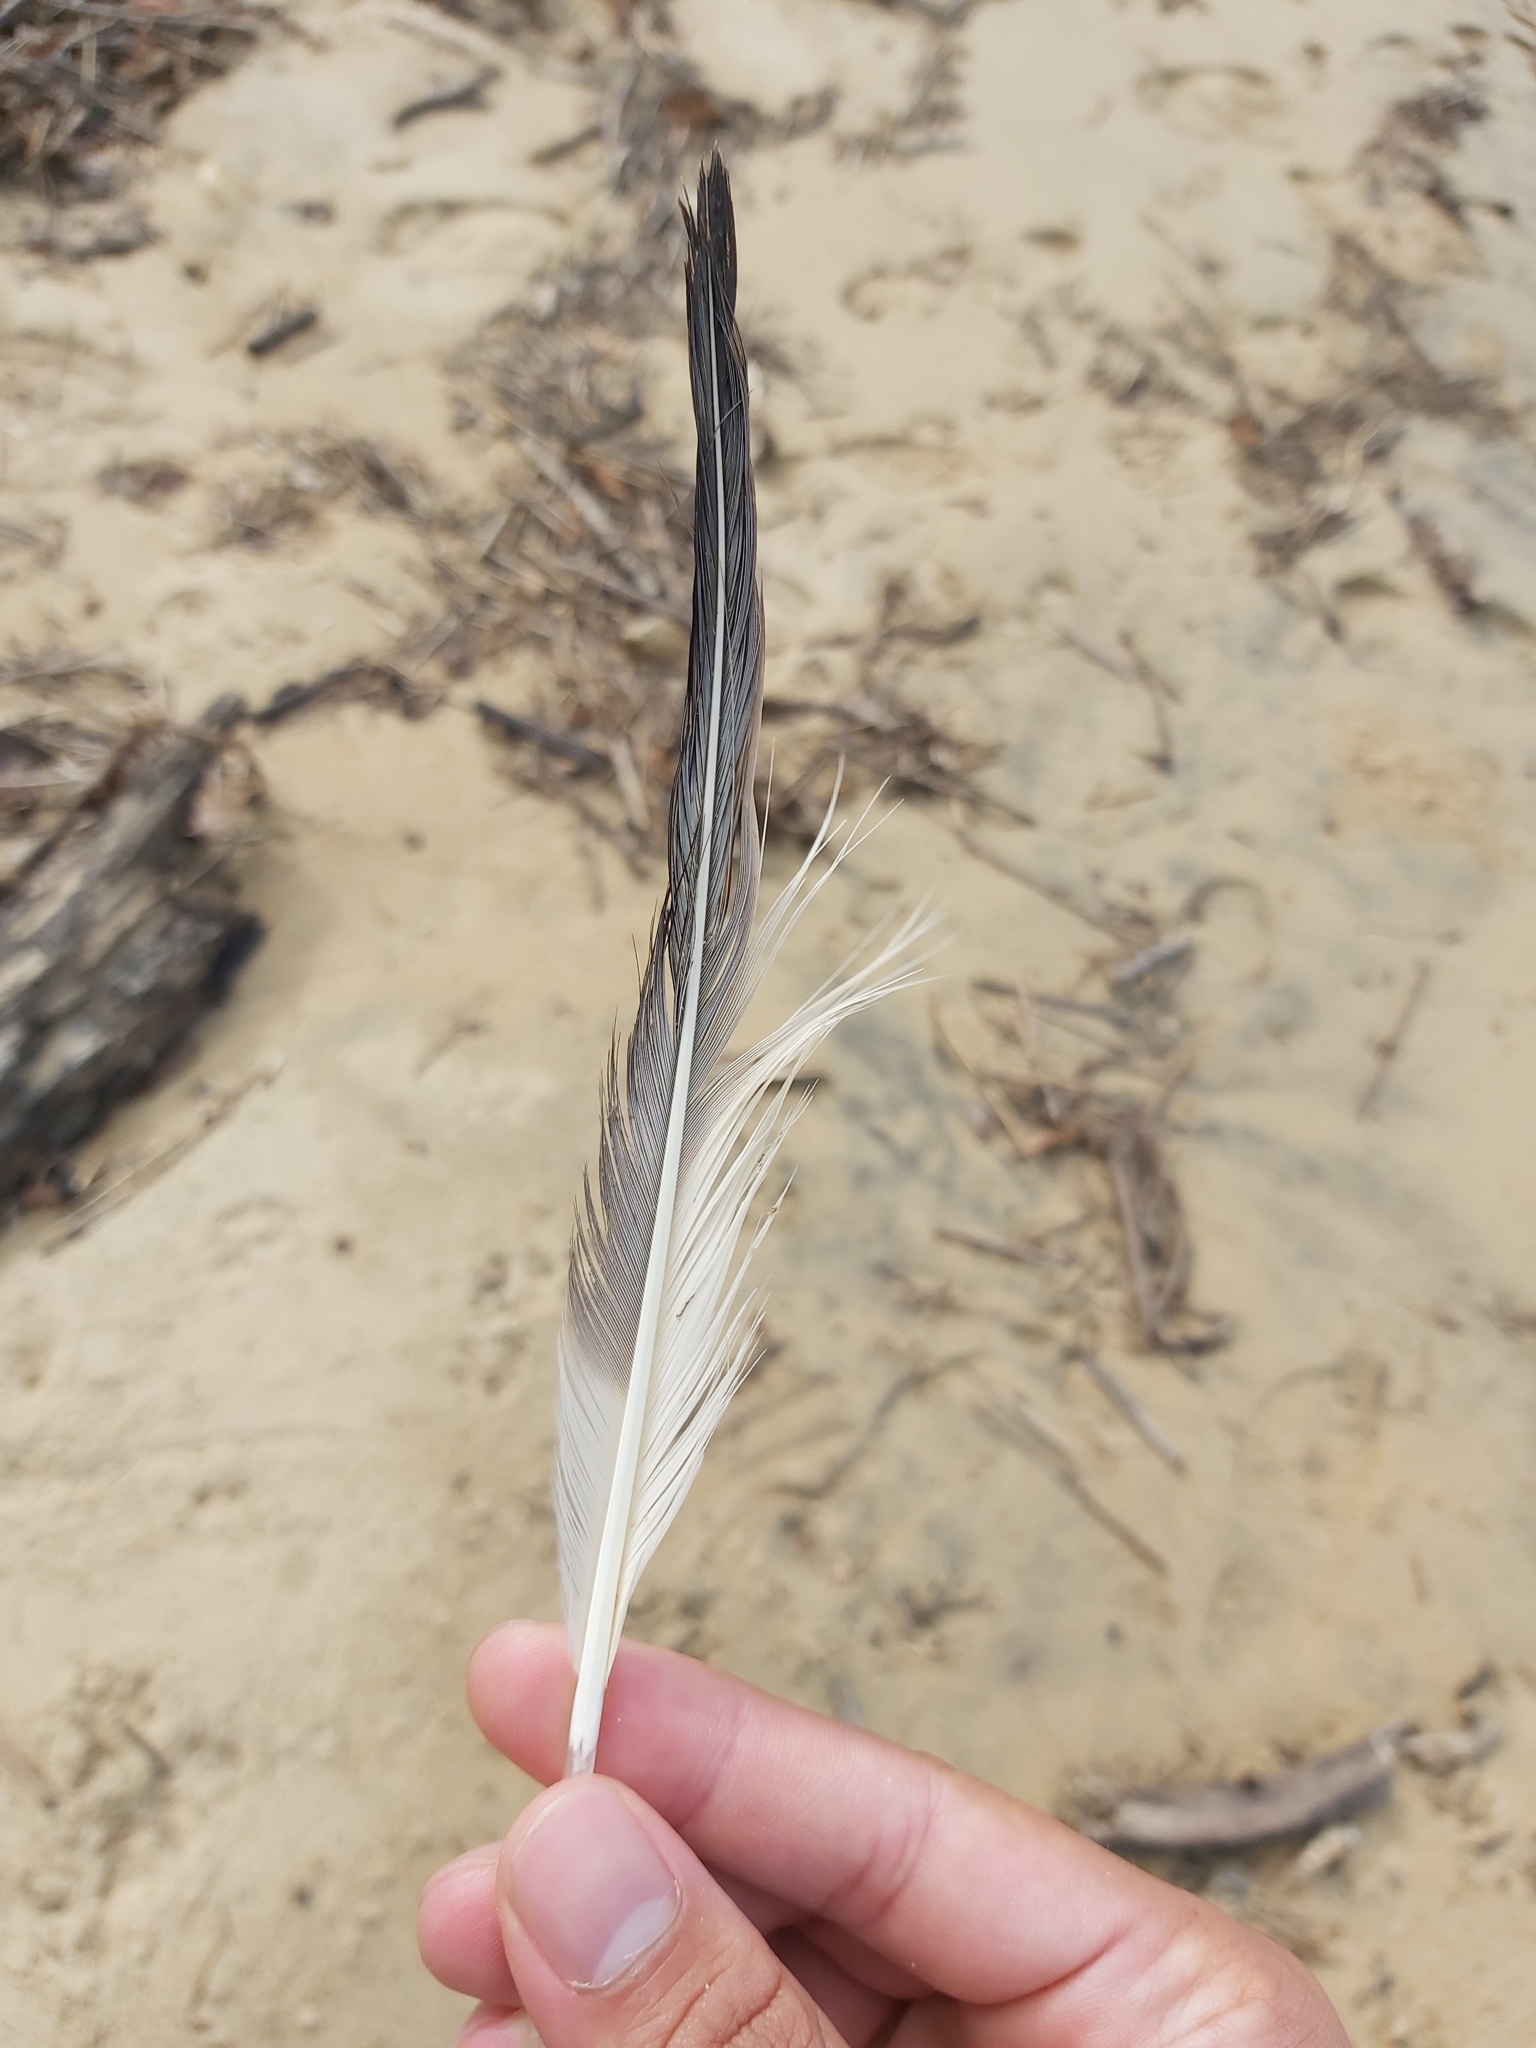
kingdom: Animalia
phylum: Chordata
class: Aves
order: Suliformes
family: Sulidae
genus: Morus
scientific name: Morus serrator
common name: Australasian gannet
